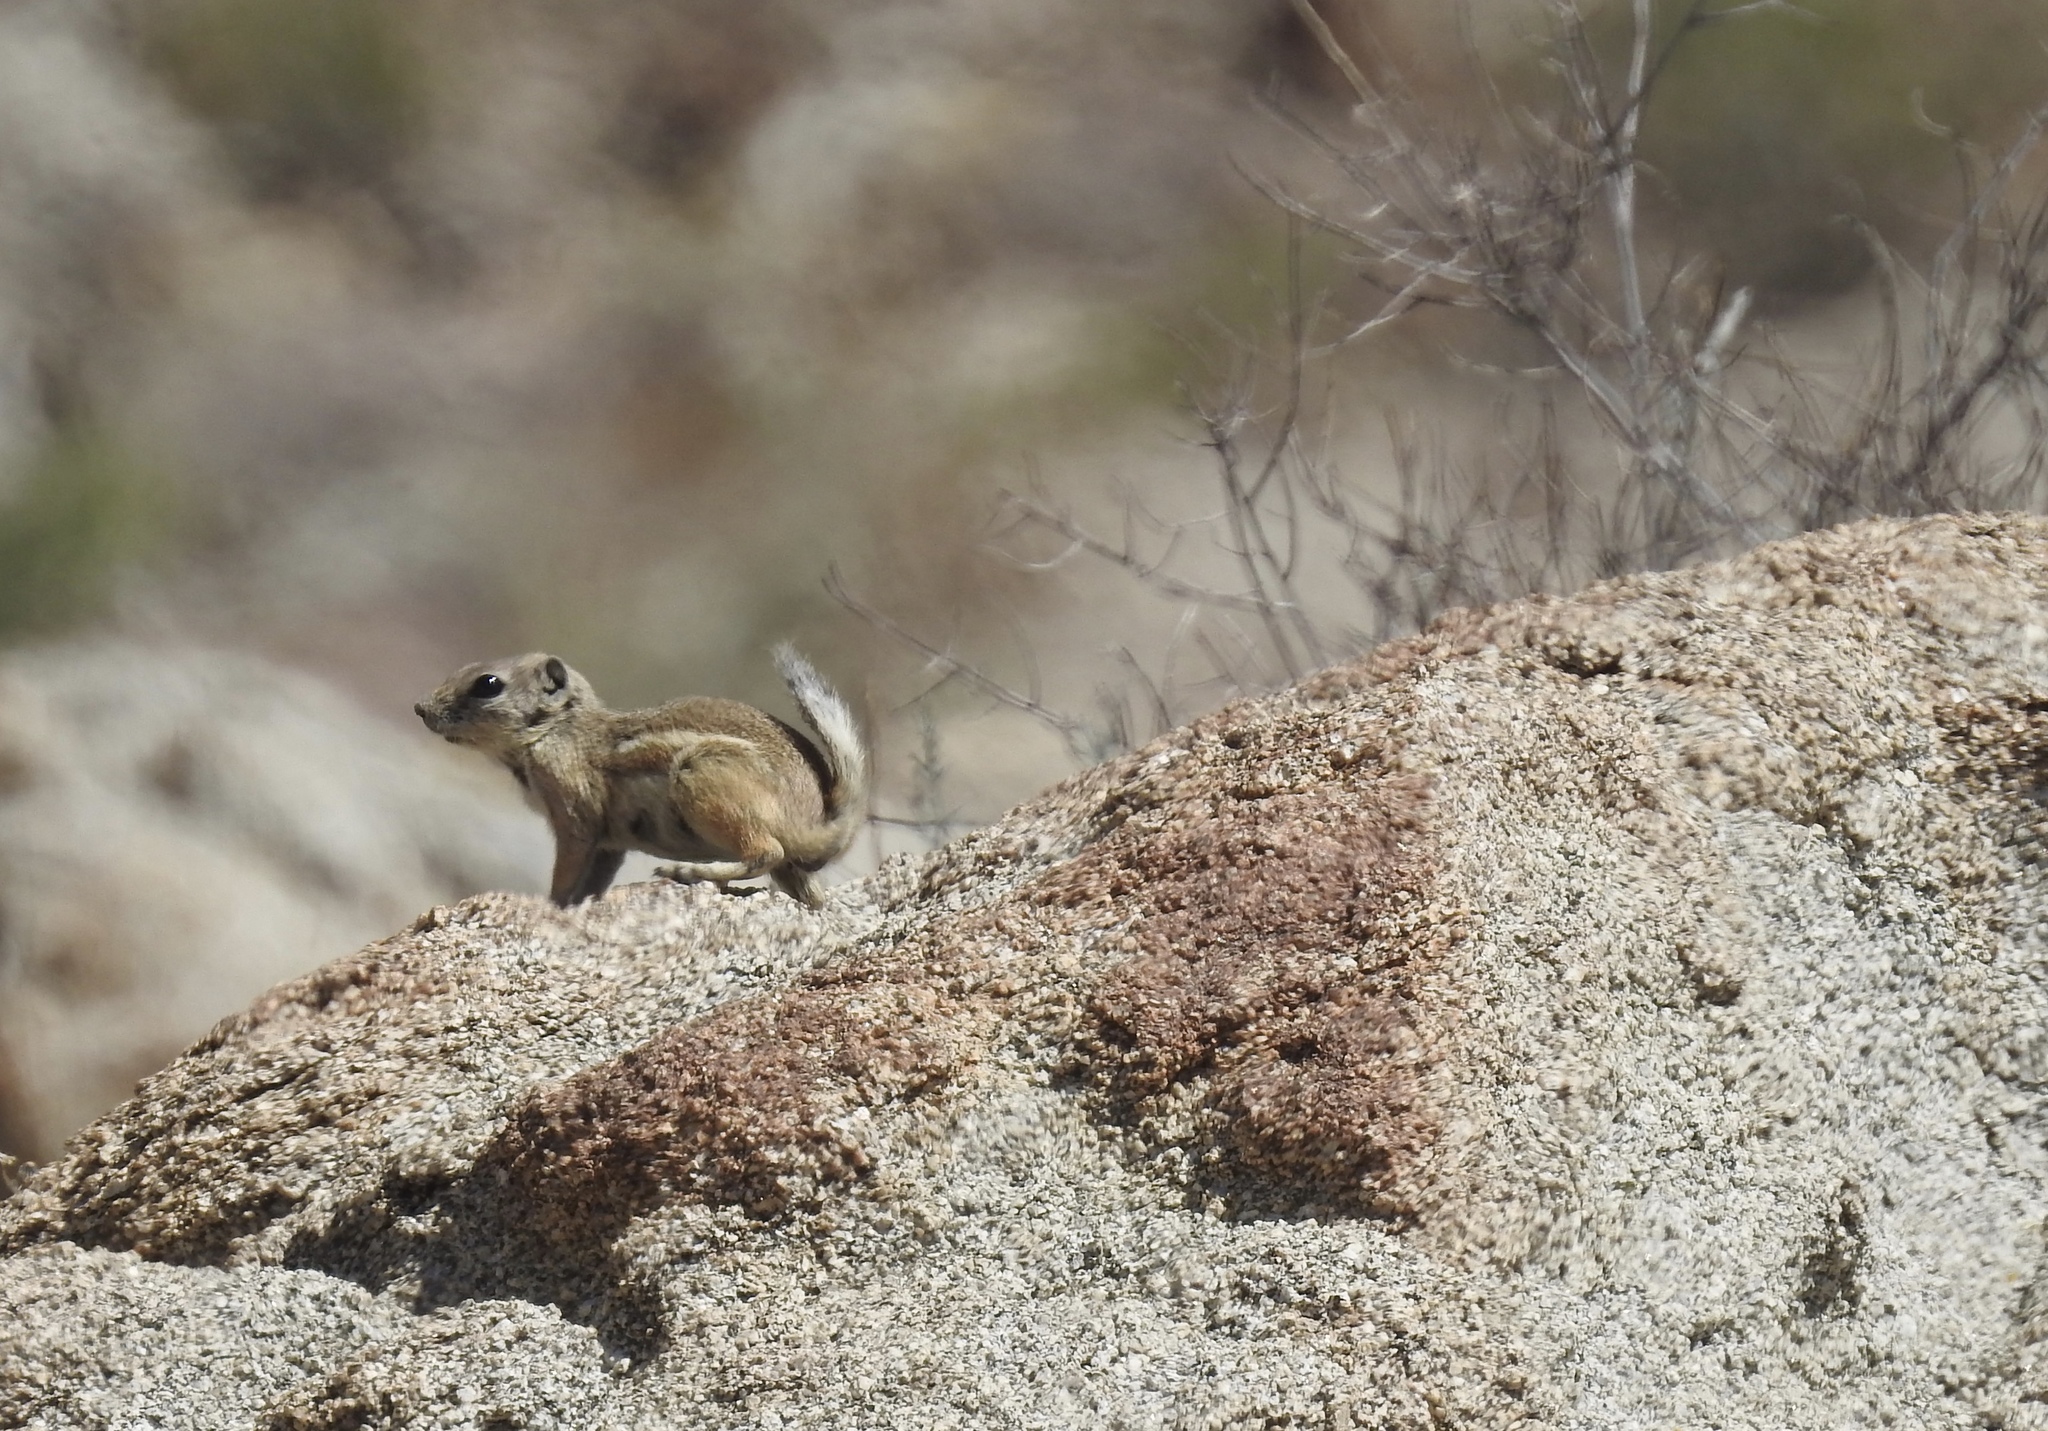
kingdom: Animalia
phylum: Chordata
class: Mammalia
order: Rodentia
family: Sciuridae
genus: Ammospermophilus
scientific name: Ammospermophilus leucurus
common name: White-tailed antelope squirrel
